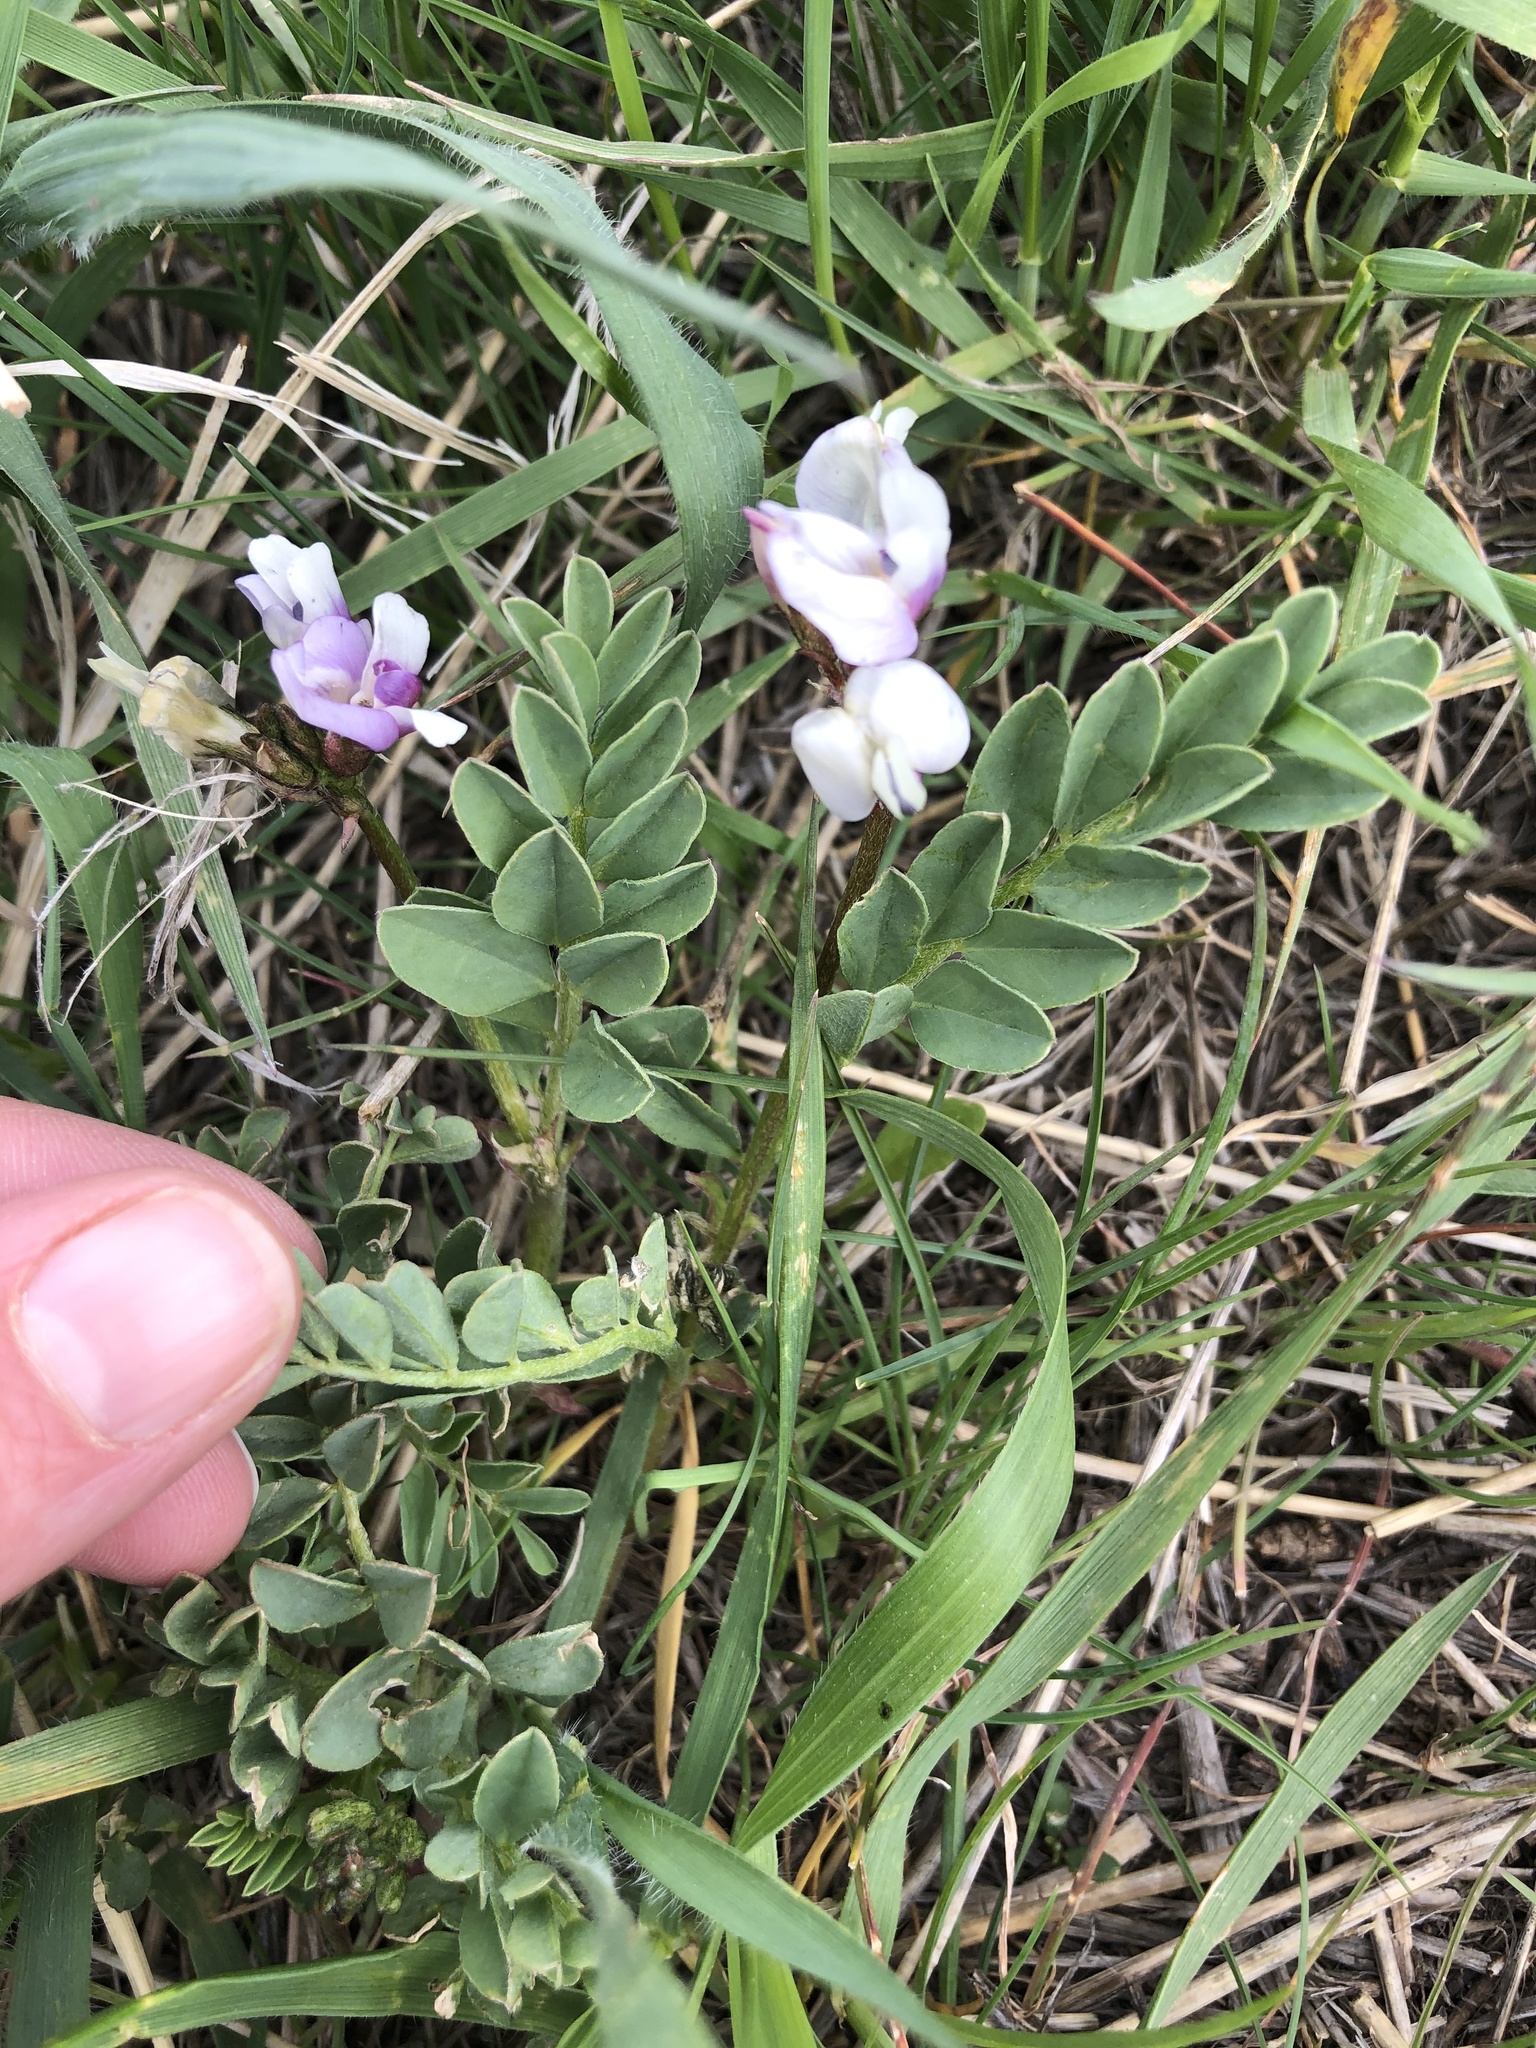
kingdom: Plantae
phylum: Tracheophyta
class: Magnoliopsida
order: Fabales
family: Fabaceae
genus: Astragalus
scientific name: Astragalus cibarius
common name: Browse milk-vetch
